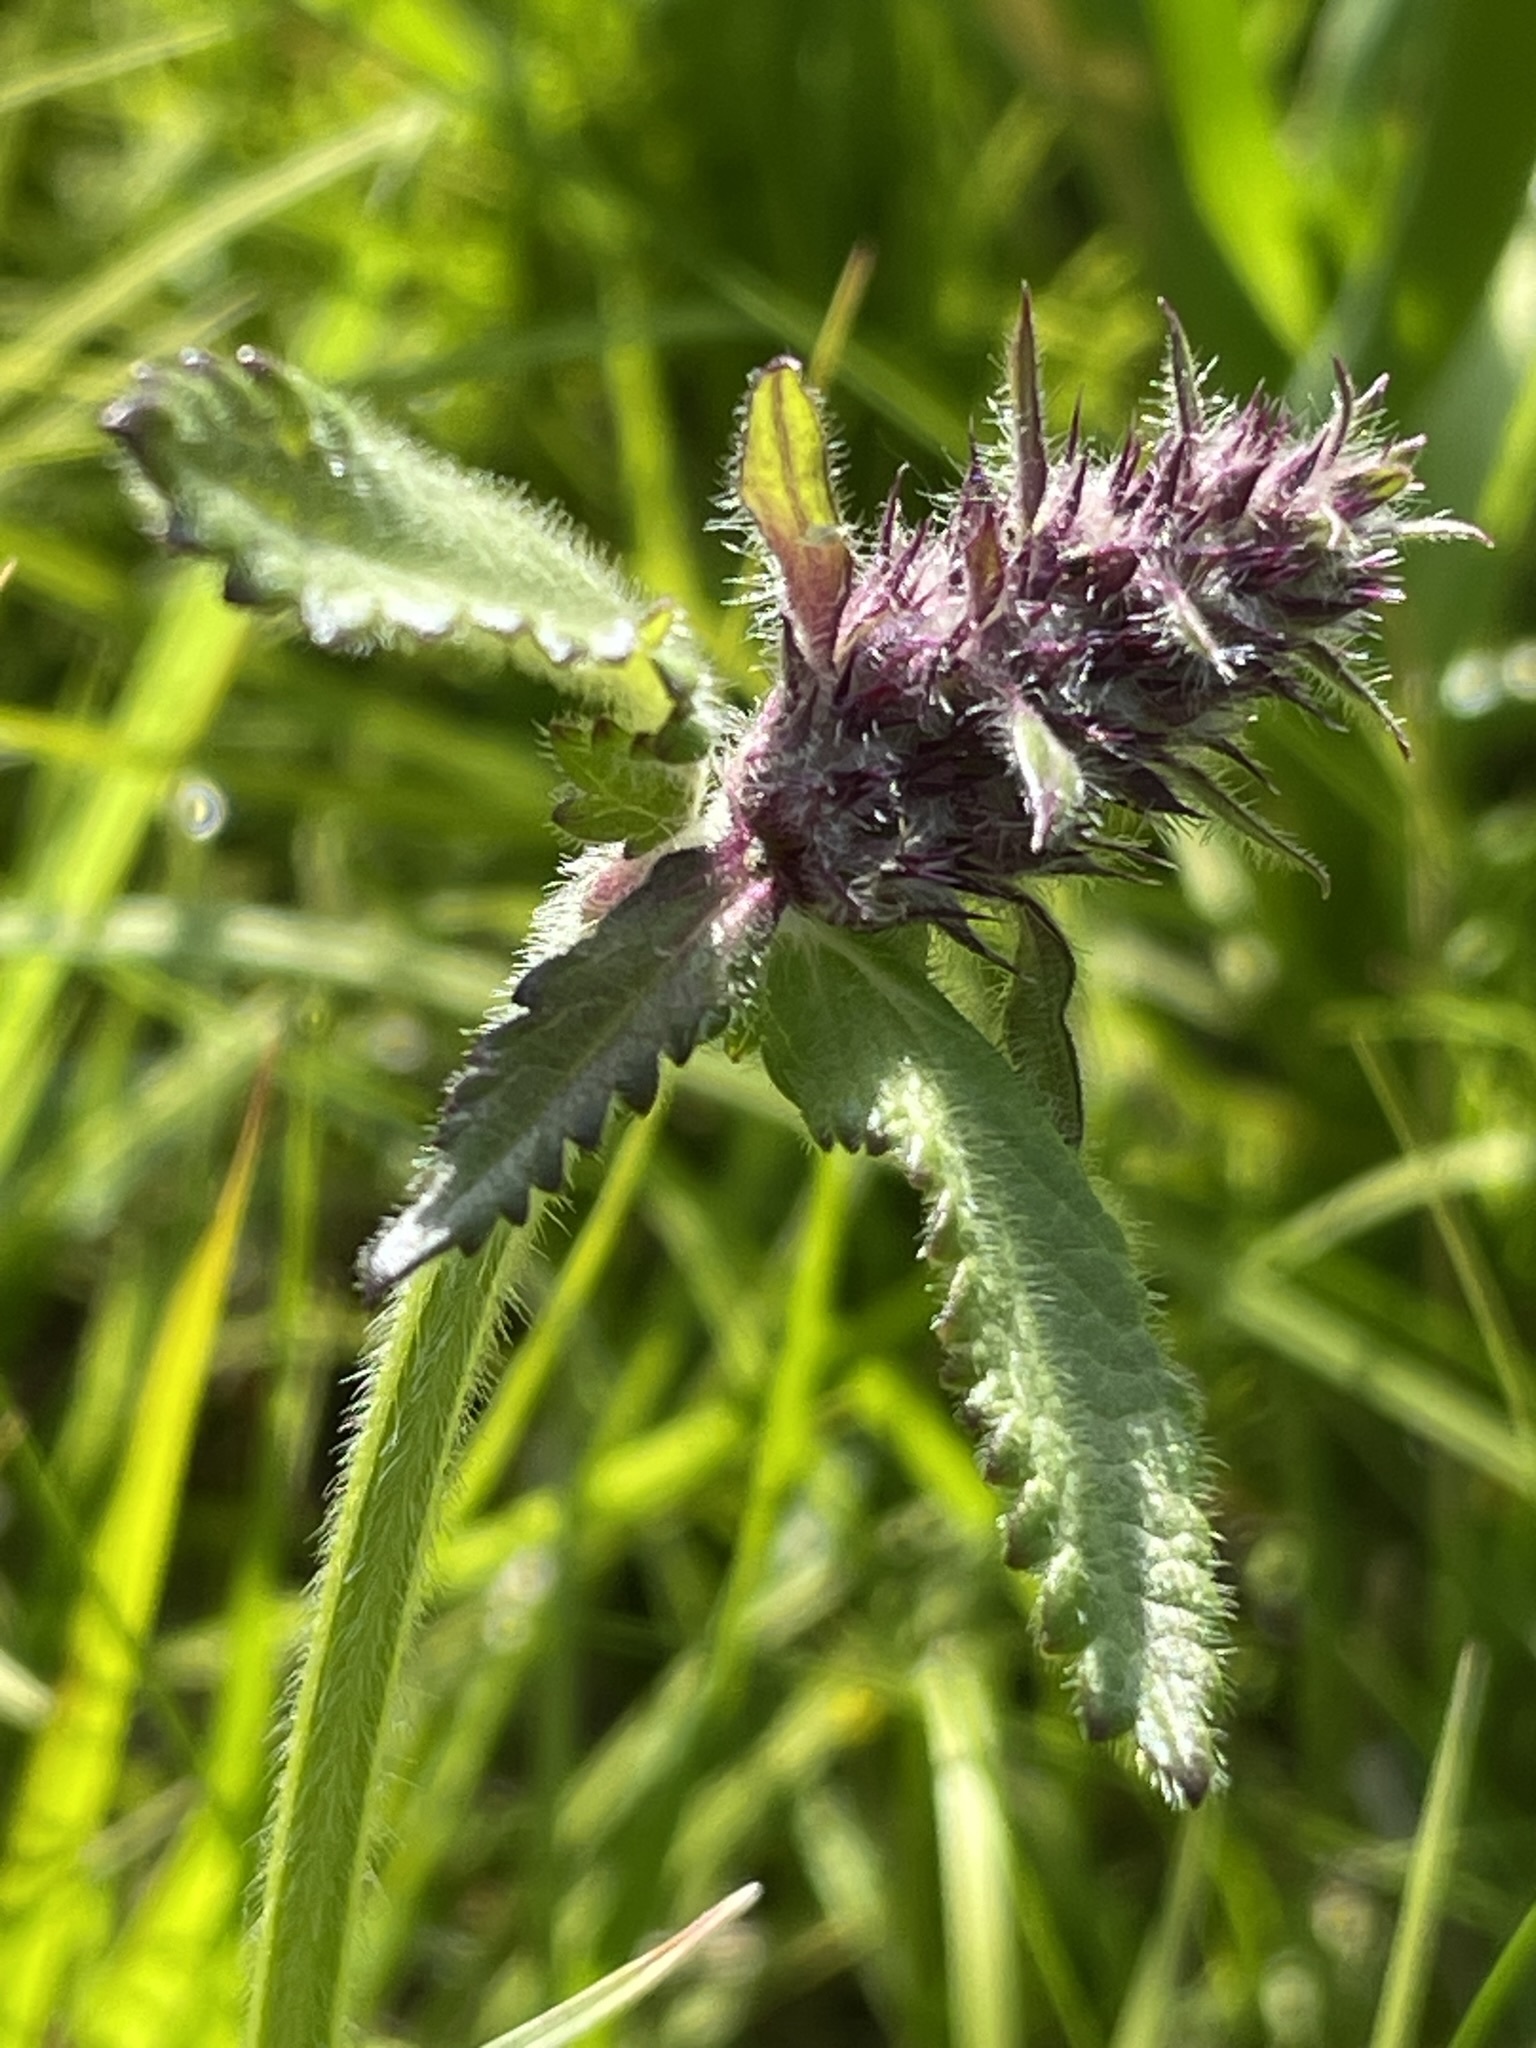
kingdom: Plantae
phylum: Tracheophyta
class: Magnoliopsida
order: Lamiales
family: Lamiaceae
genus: Betonica
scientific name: Betonica officinalis
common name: Bishop's-wort
